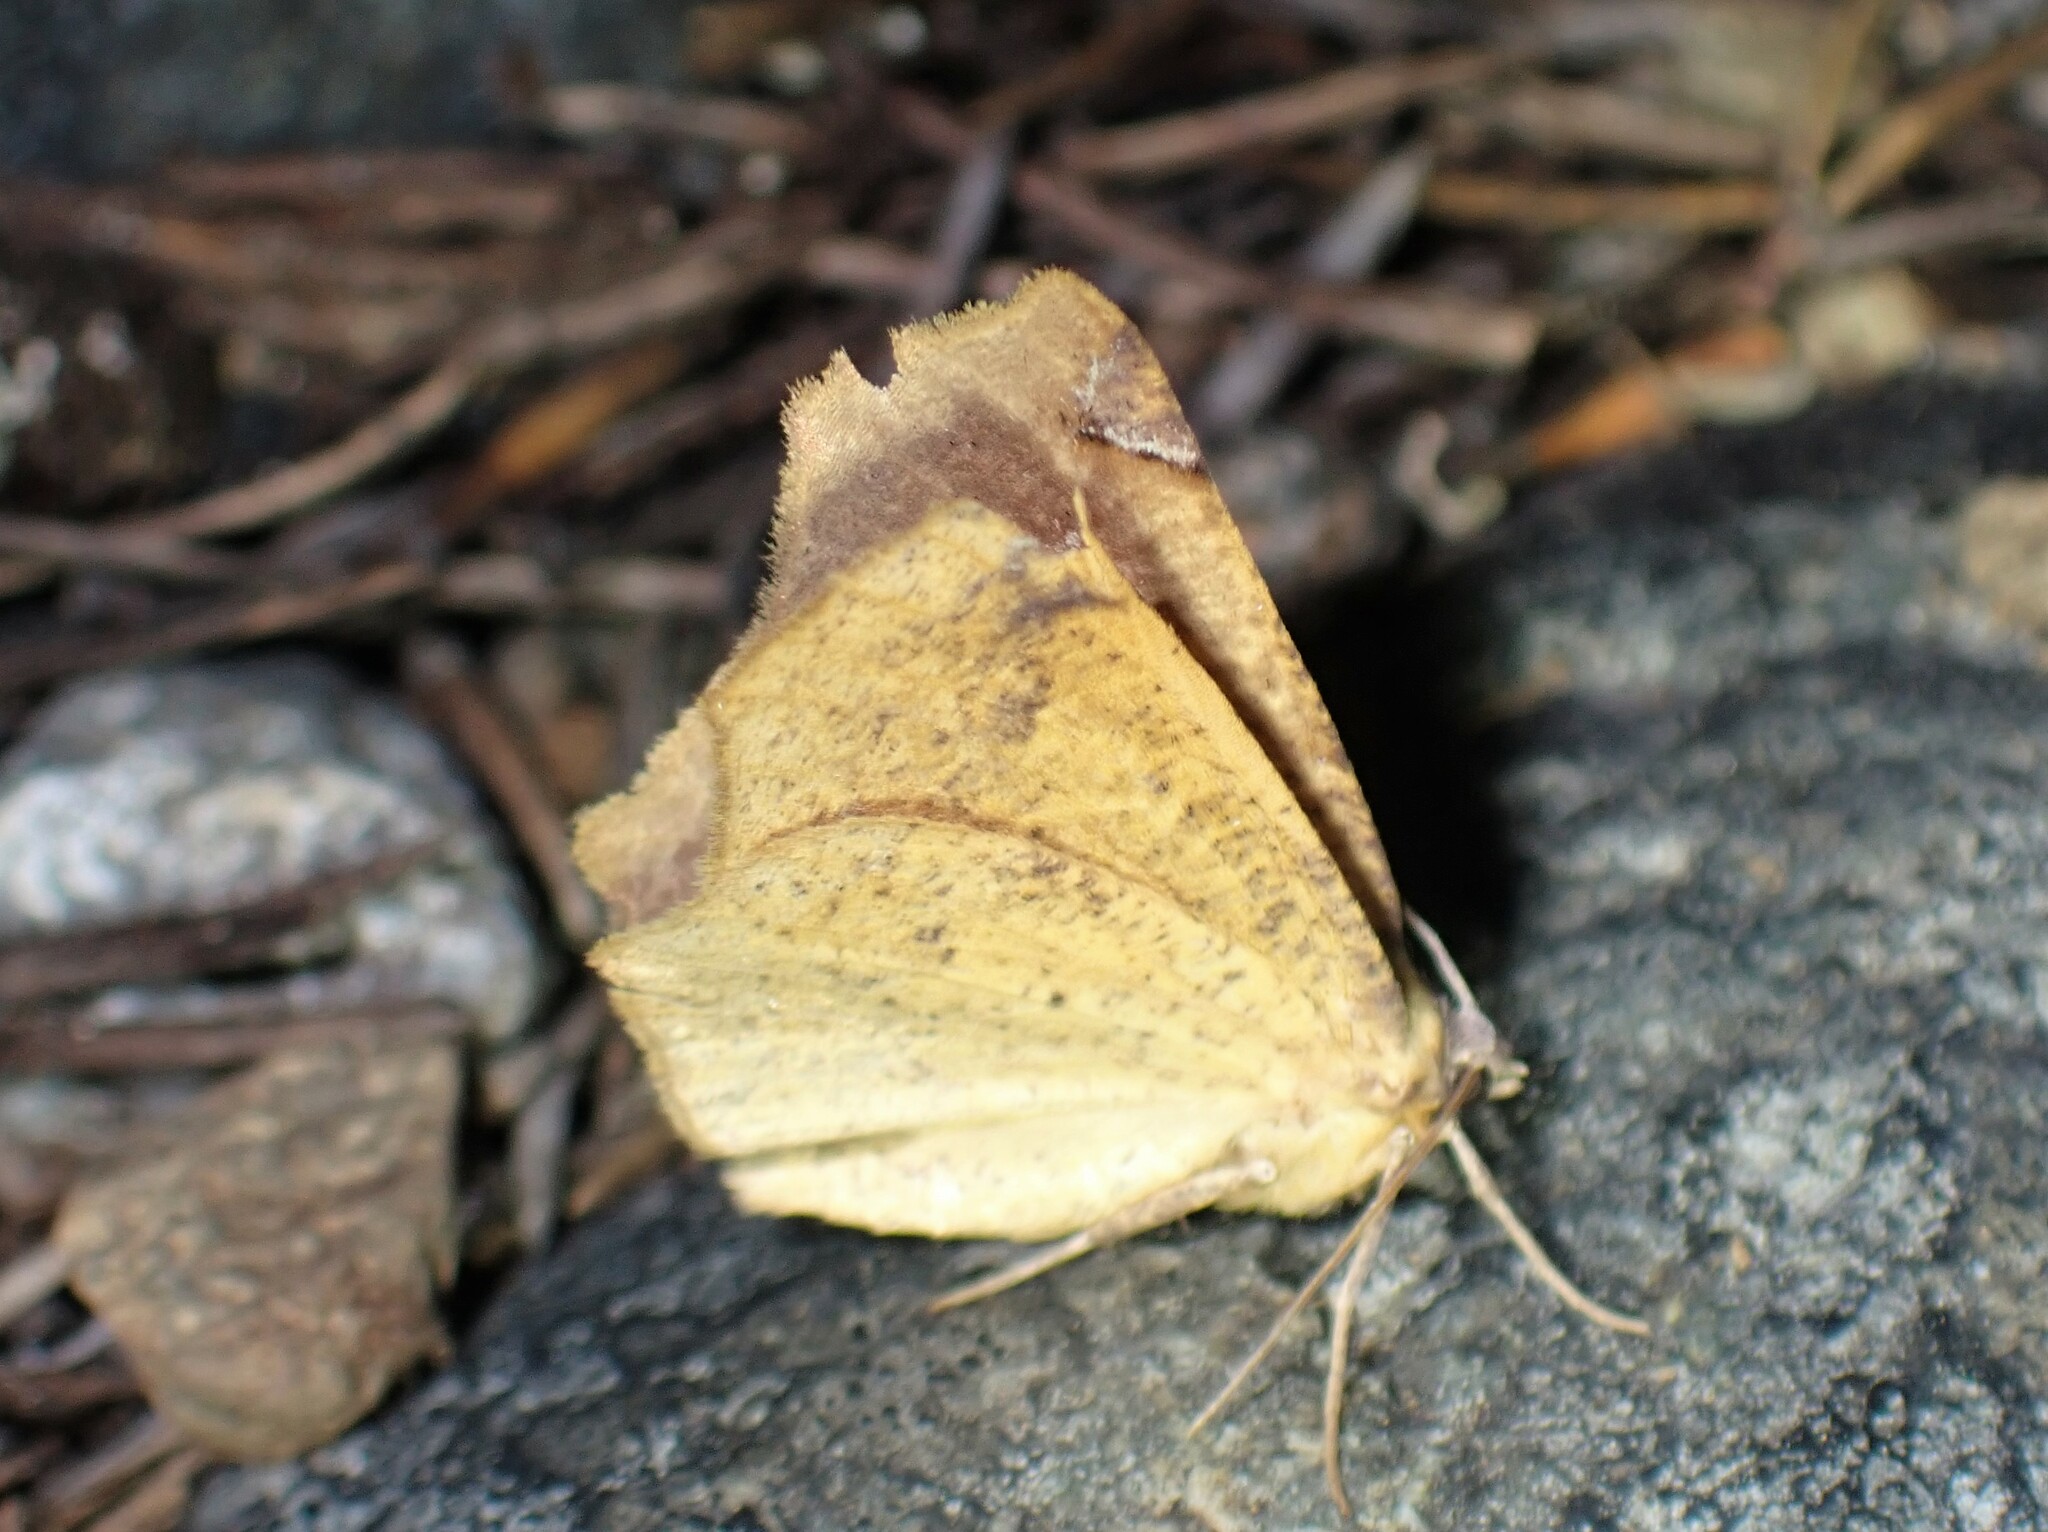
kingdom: Animalia
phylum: Arthropoda
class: Insecta
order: Lepidoptera
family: Geometridae
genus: Antepione
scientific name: Antepione thisoaria
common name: Variable antipione
